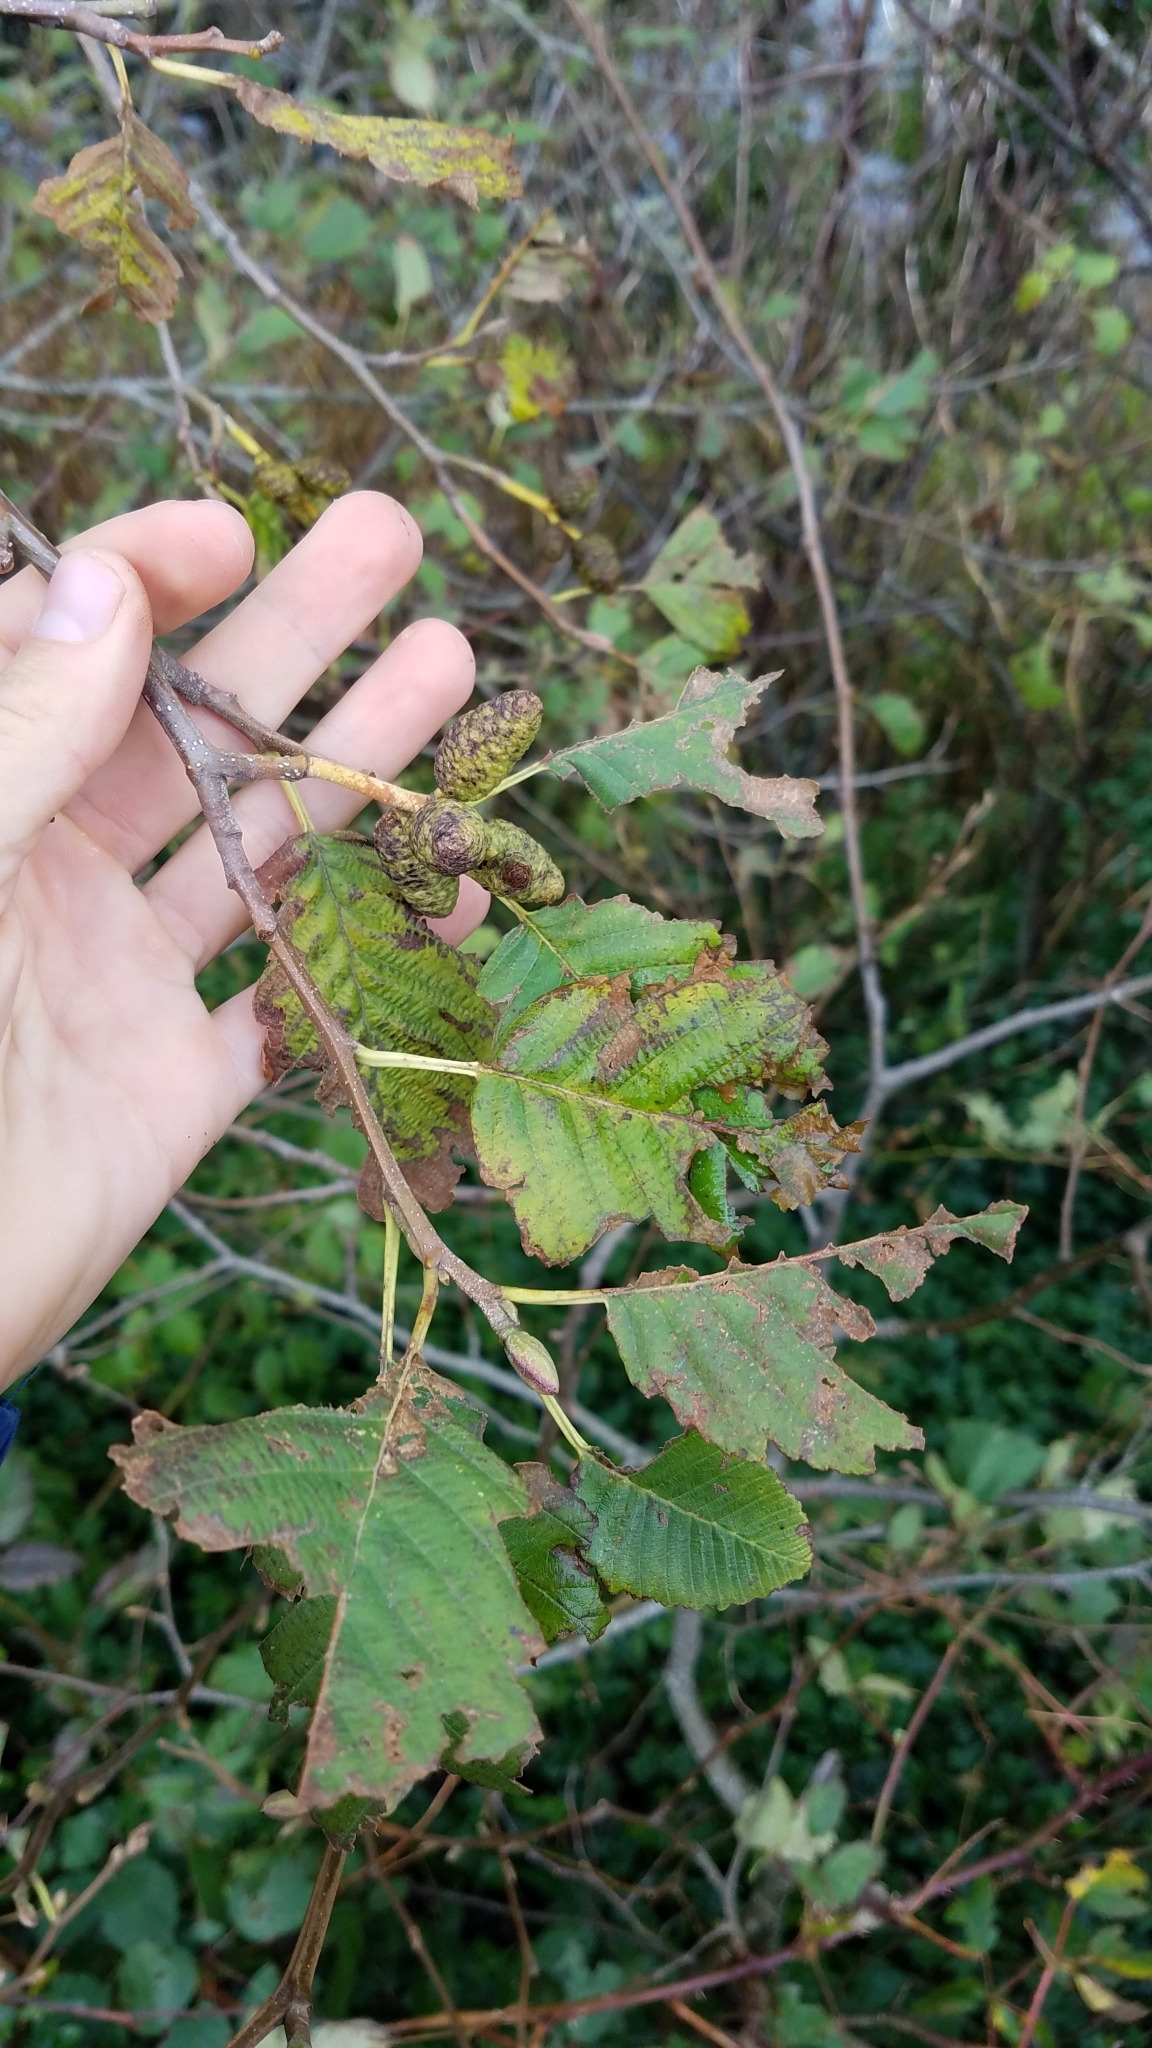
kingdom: Plantae
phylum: Tracheophyta
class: Magnoliopsida
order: Fagales
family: Betulaceae
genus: Alnus
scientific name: Alnus rubra
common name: Red alder
